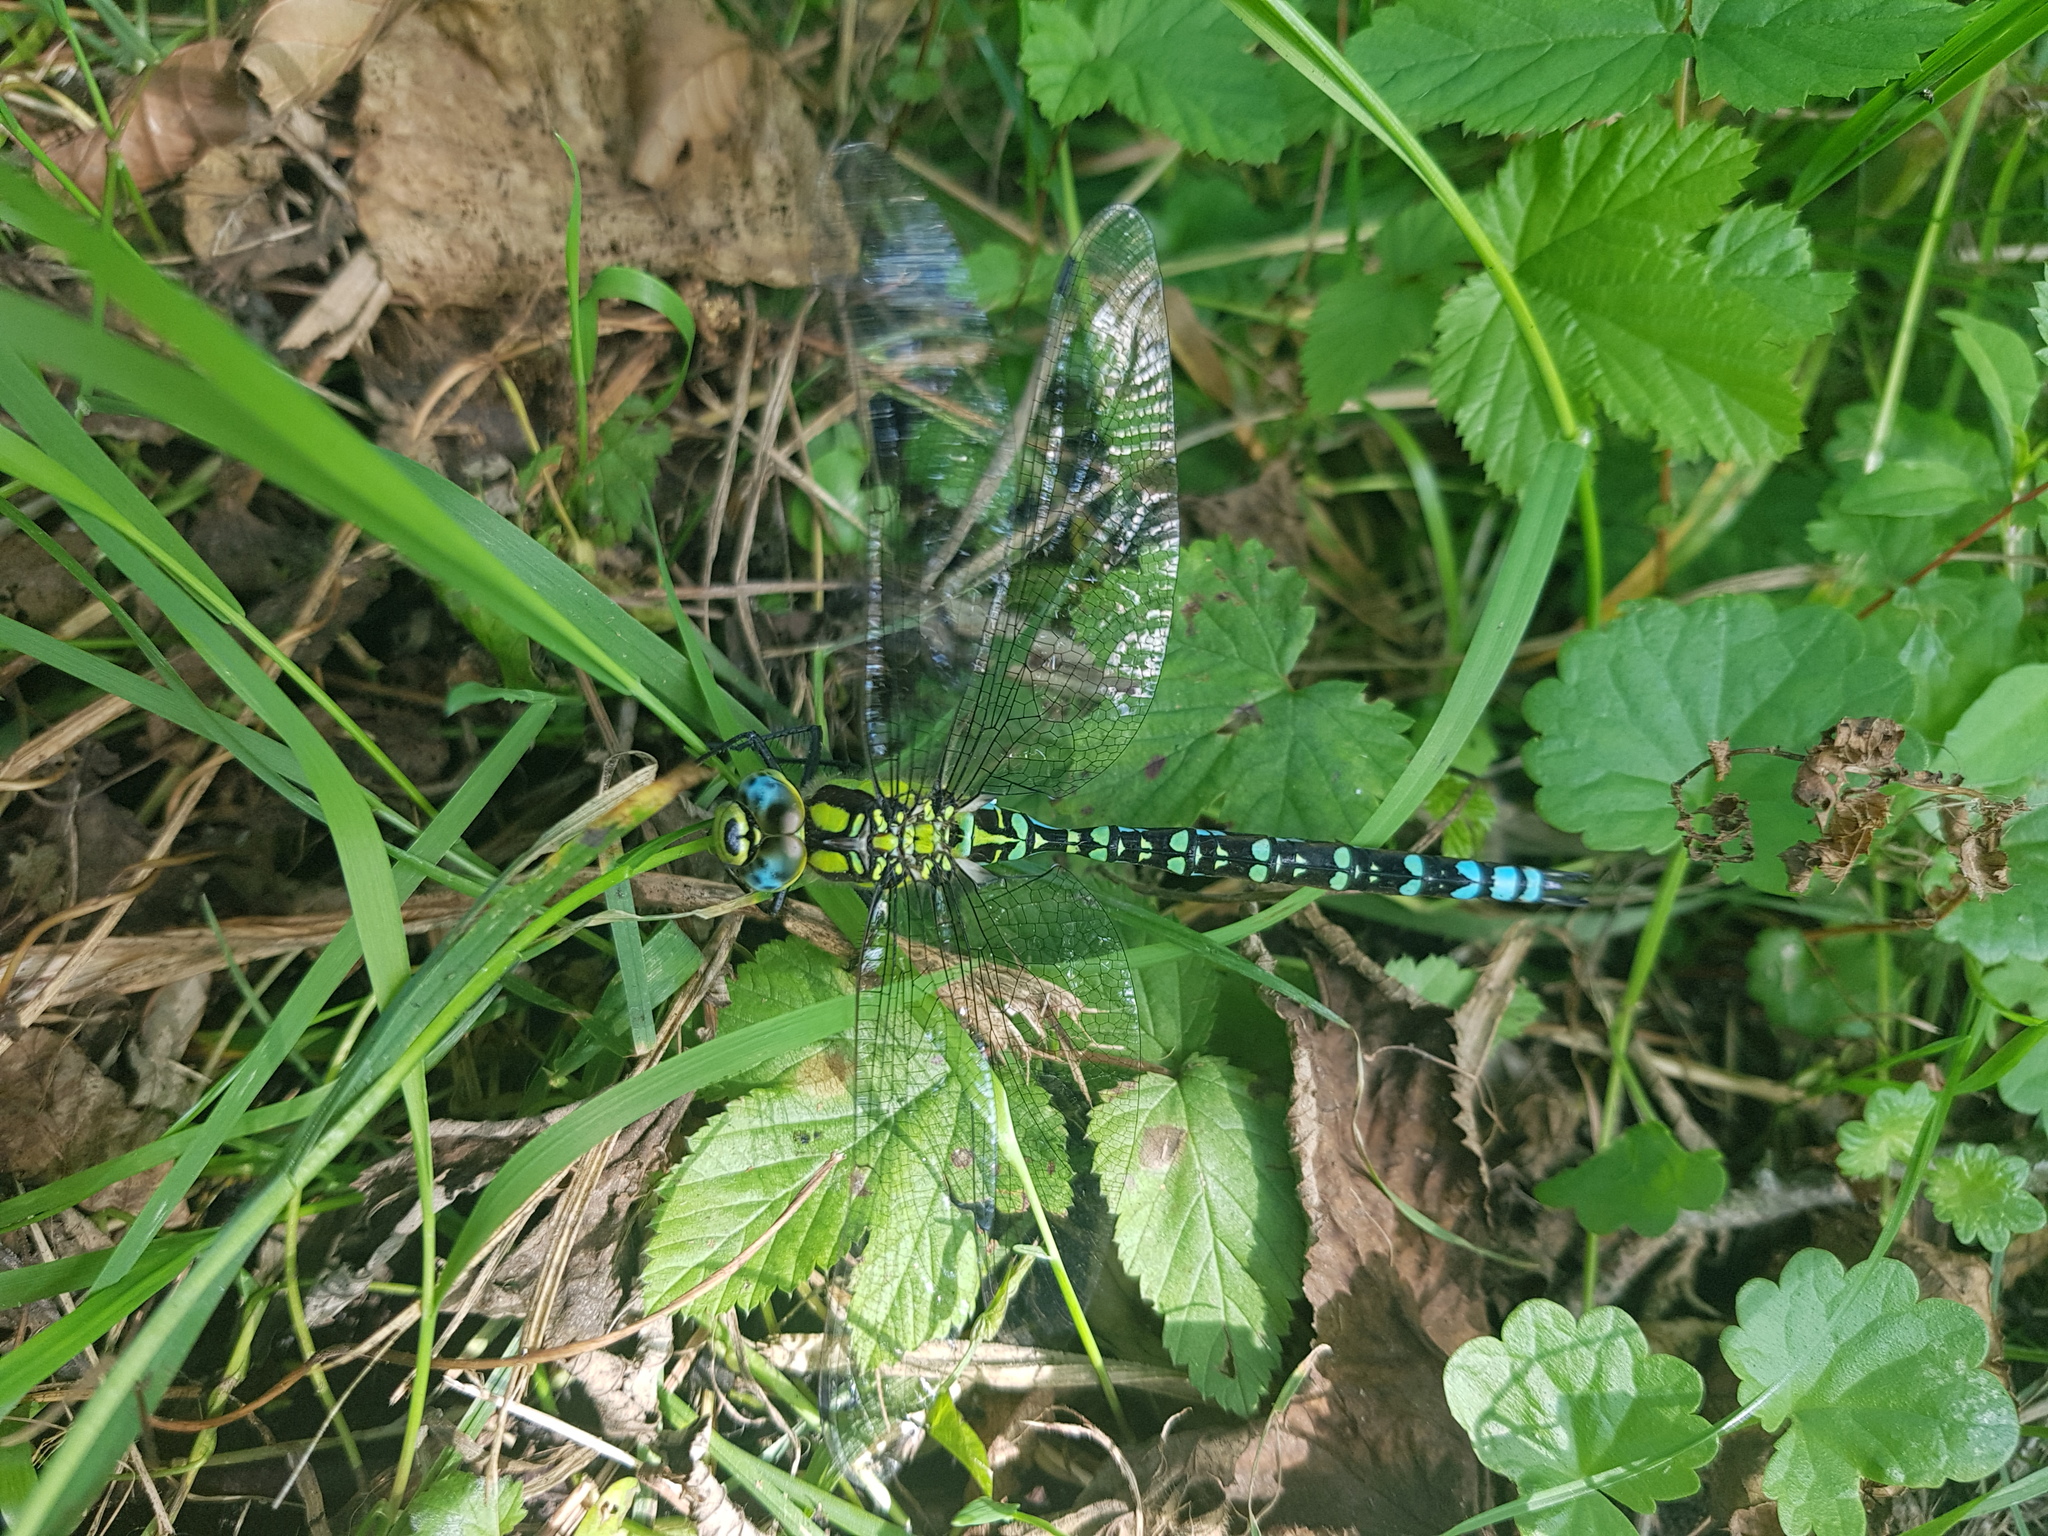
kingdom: Animalia
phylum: Arthropoda
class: Insecta
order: Odonata
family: Aeshnidae
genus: Aeshna
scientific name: Aeshna cyanea
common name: Southern hawker
